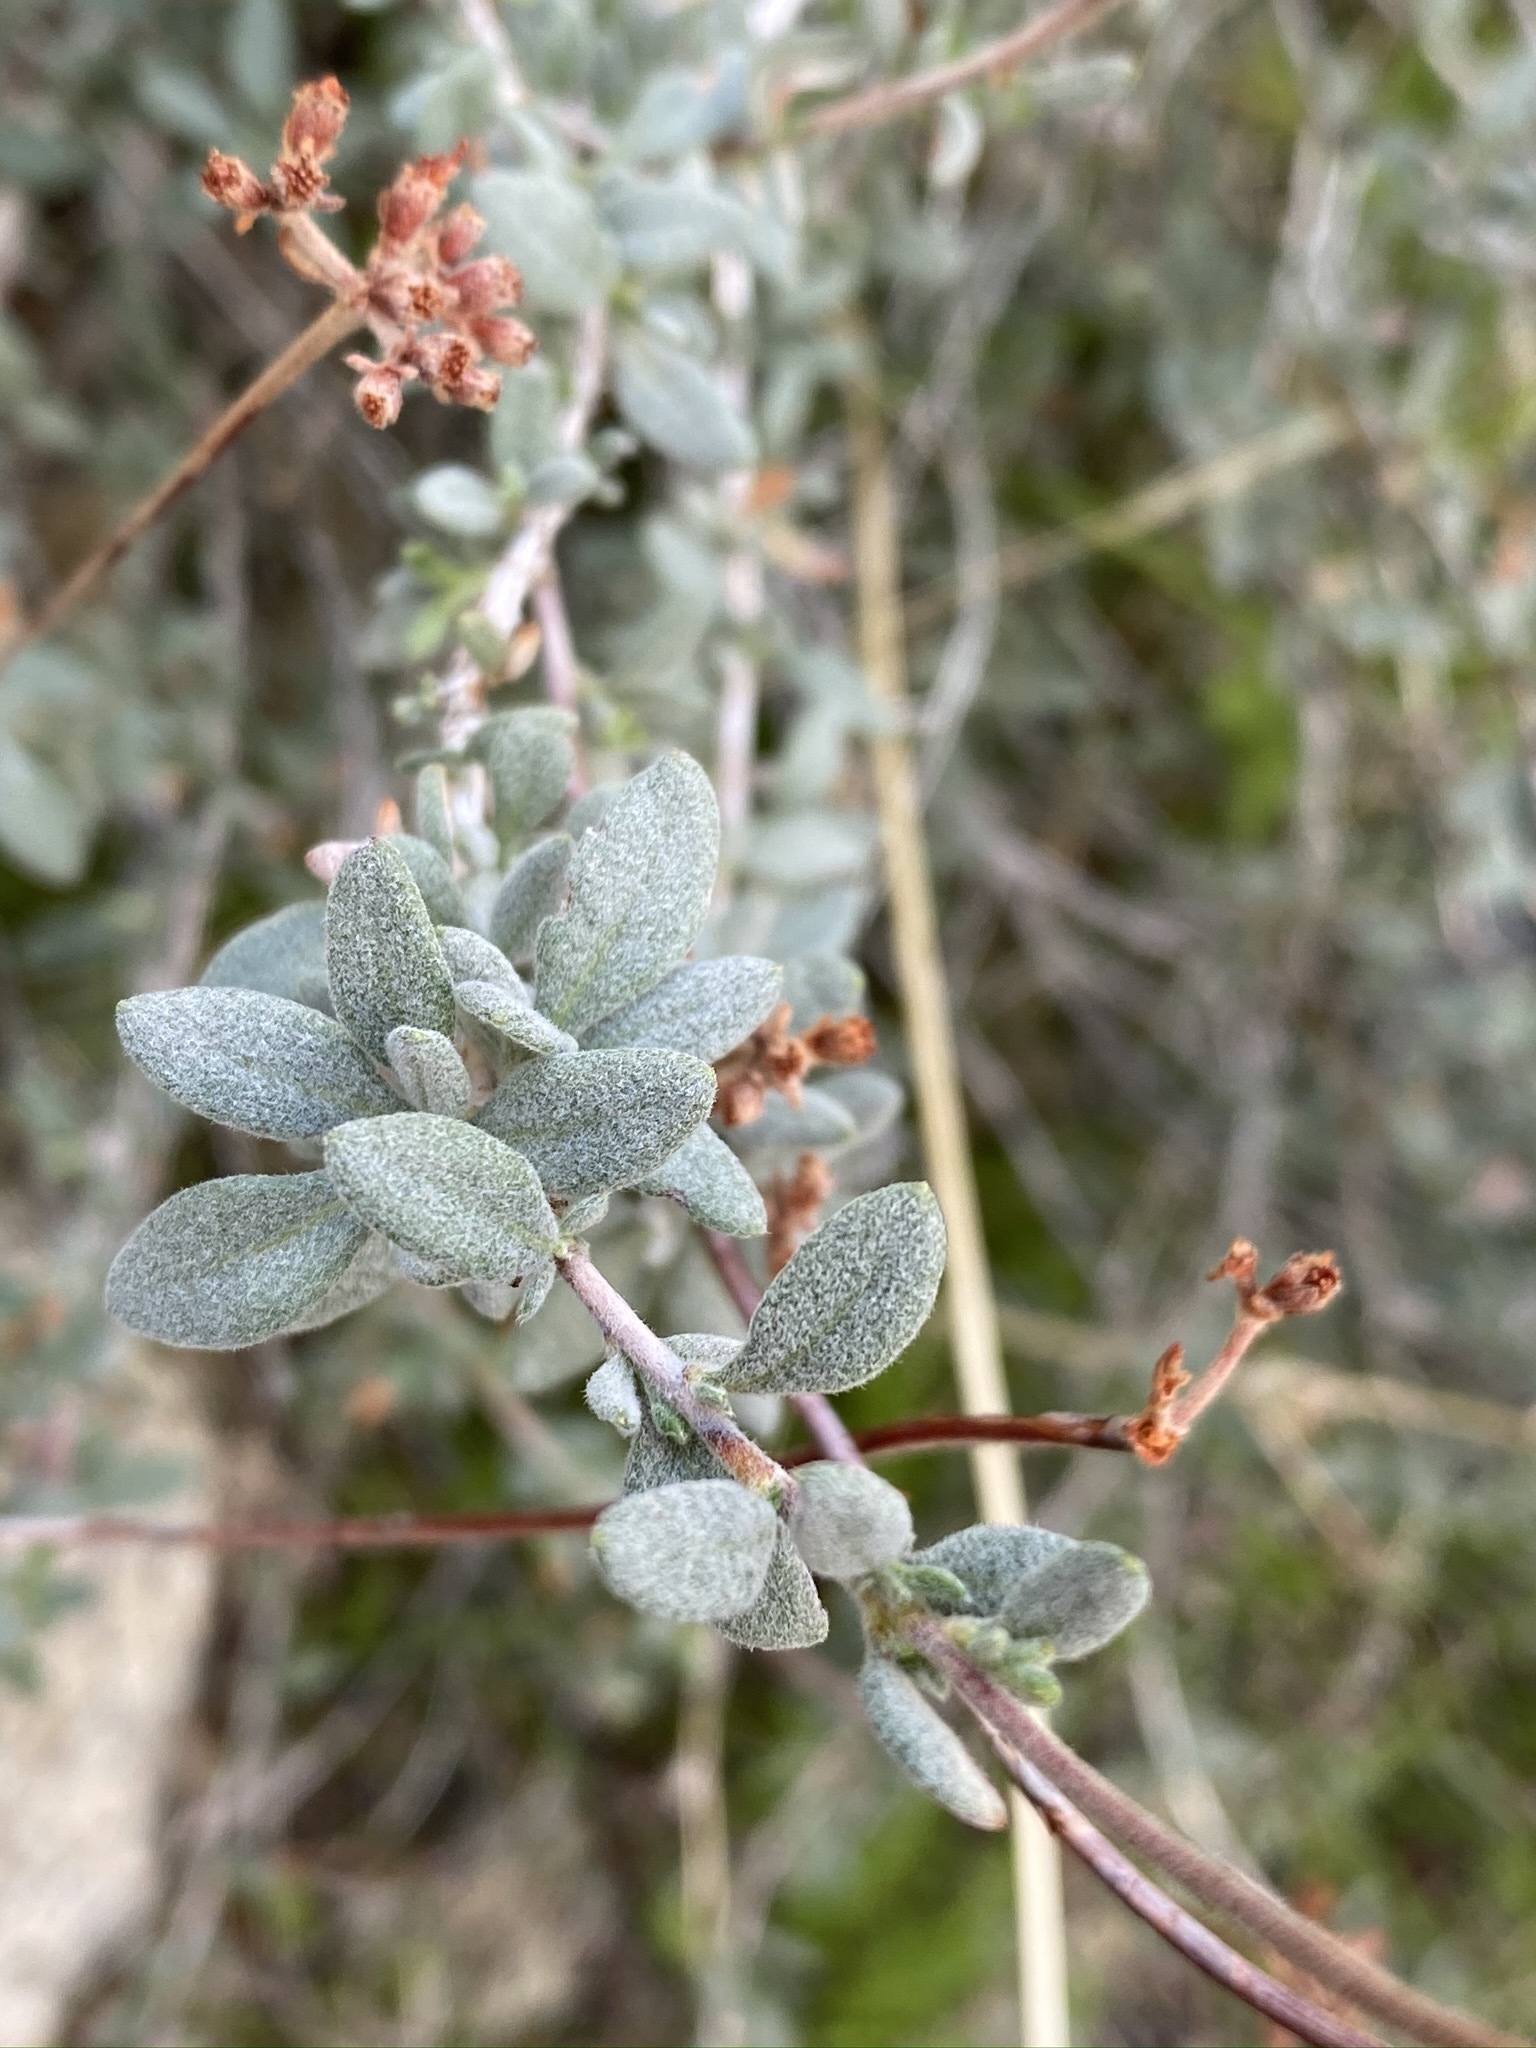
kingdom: Plantae
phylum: Tracheophyta
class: Magnoliopsida
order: Caryophyllales
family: Polygonaceae
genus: Eriogonum
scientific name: Eriogonum fasciculatum
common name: California wild buckwheat
